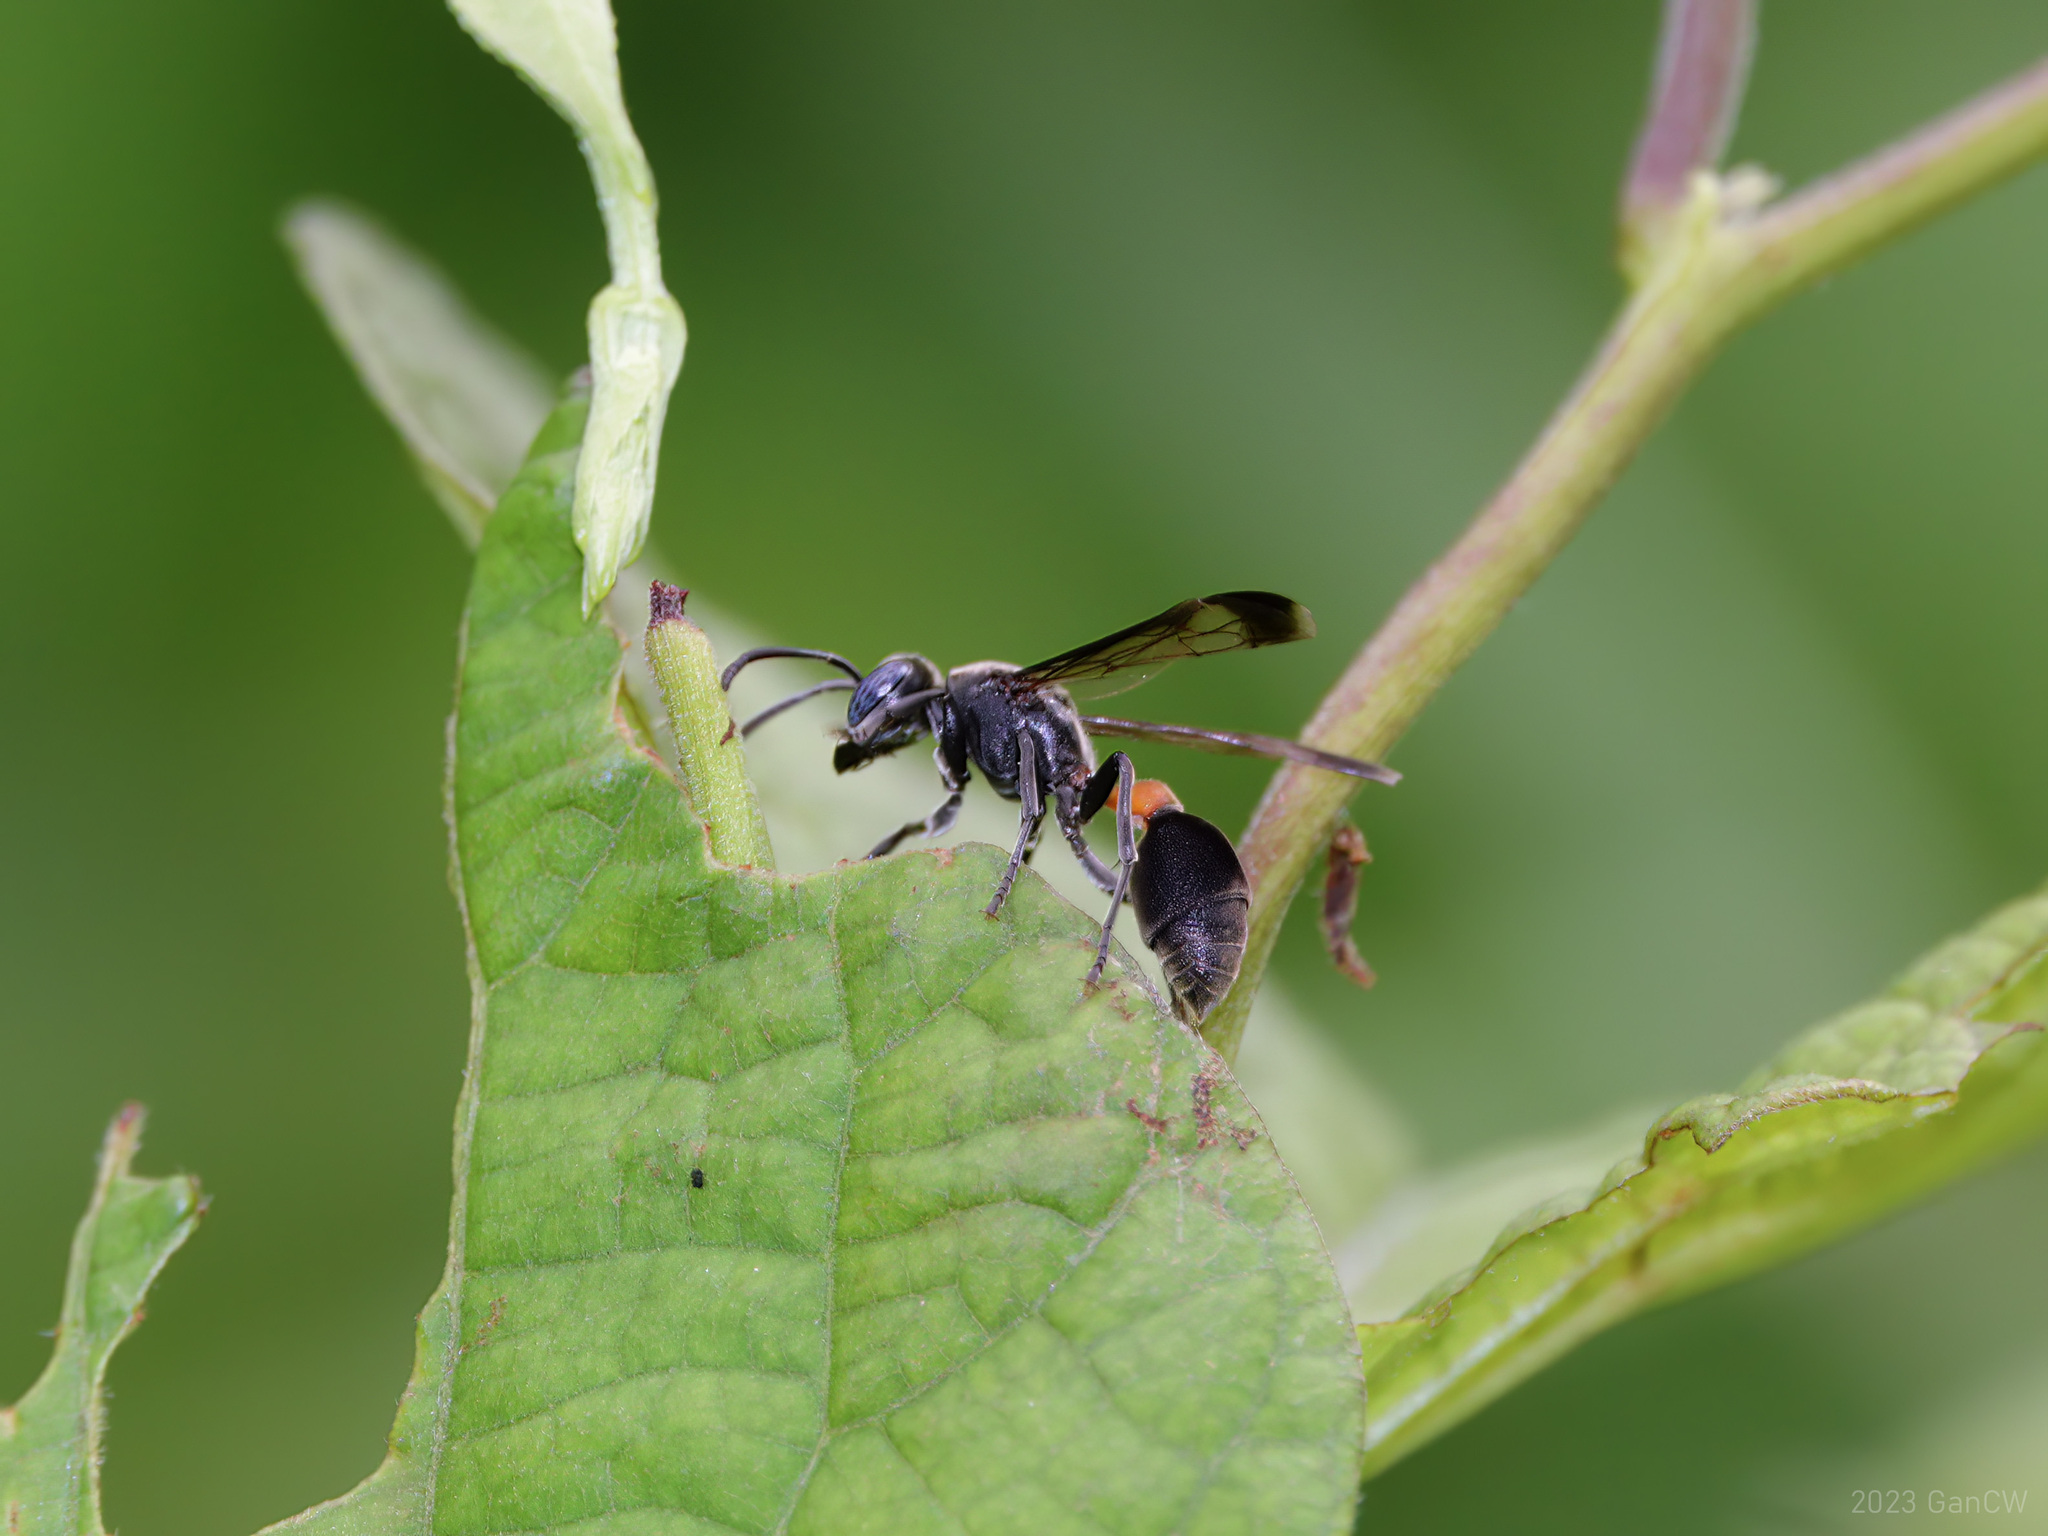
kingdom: Animalia
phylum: Arthropoda
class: Insecta
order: Hymenoptera
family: Vespidae
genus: Ropalidia
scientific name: Ropalidia sumatrae
